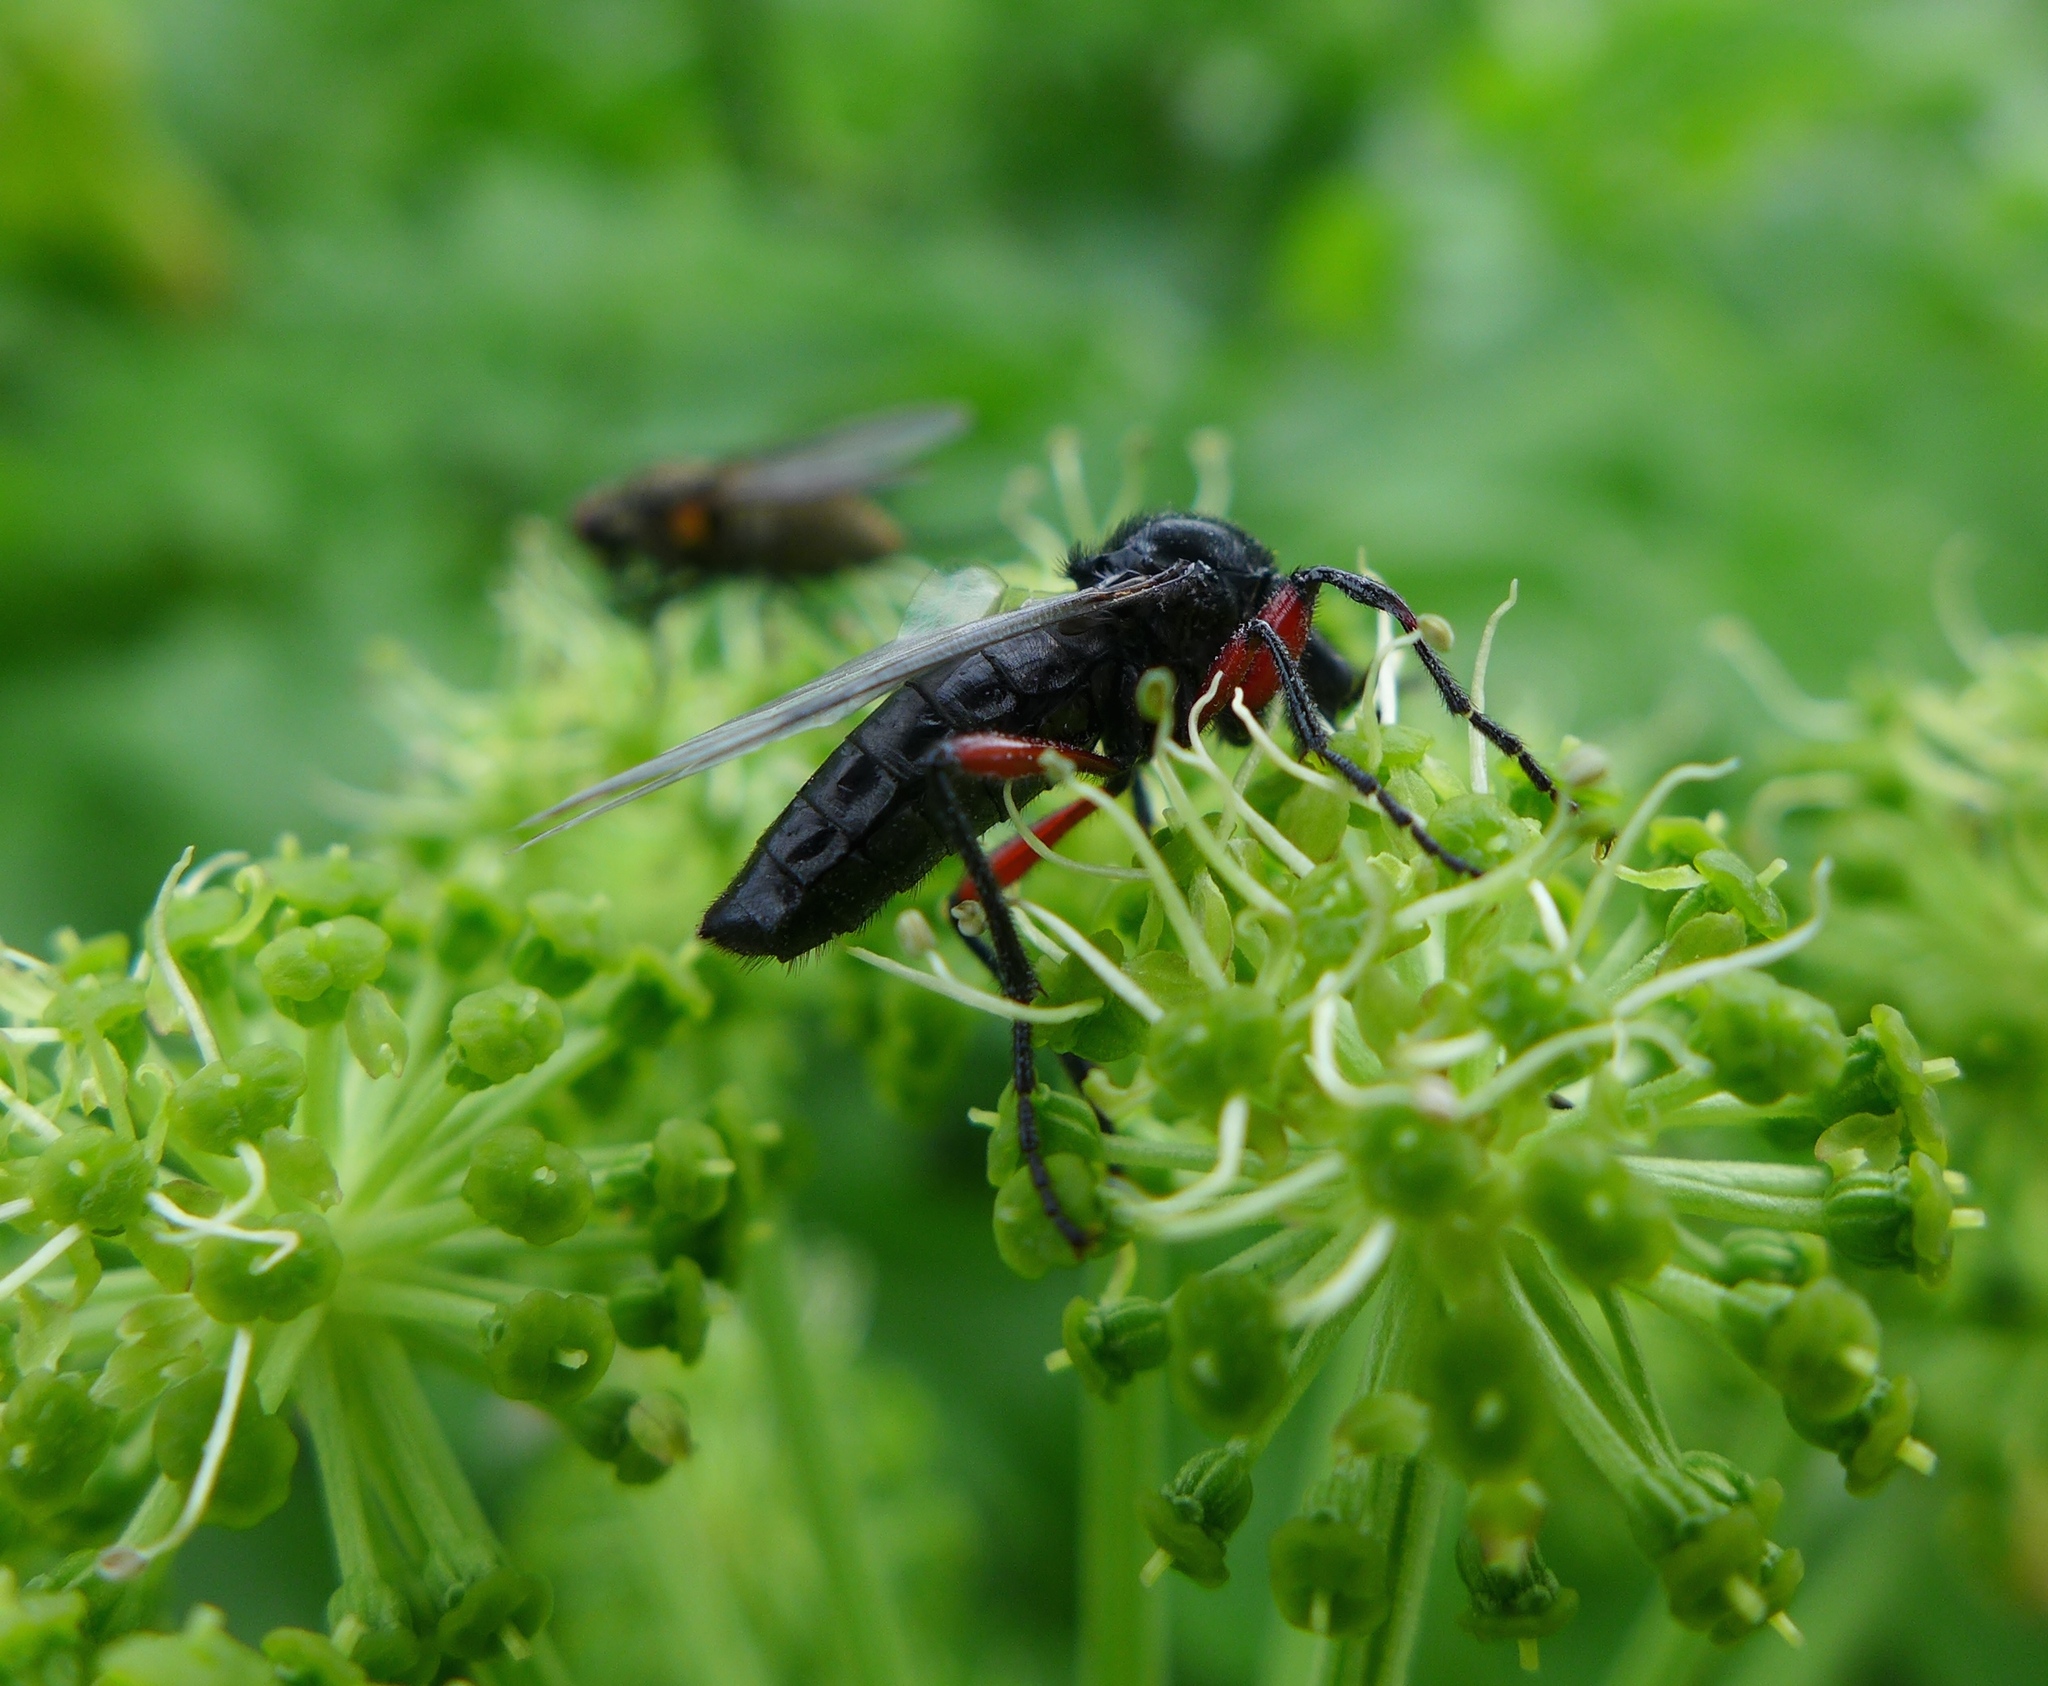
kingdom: Animalia
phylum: Arthropoda
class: Insecta
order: Diptera
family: Bibionidae
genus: Bibio
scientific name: Bibio pomonae
